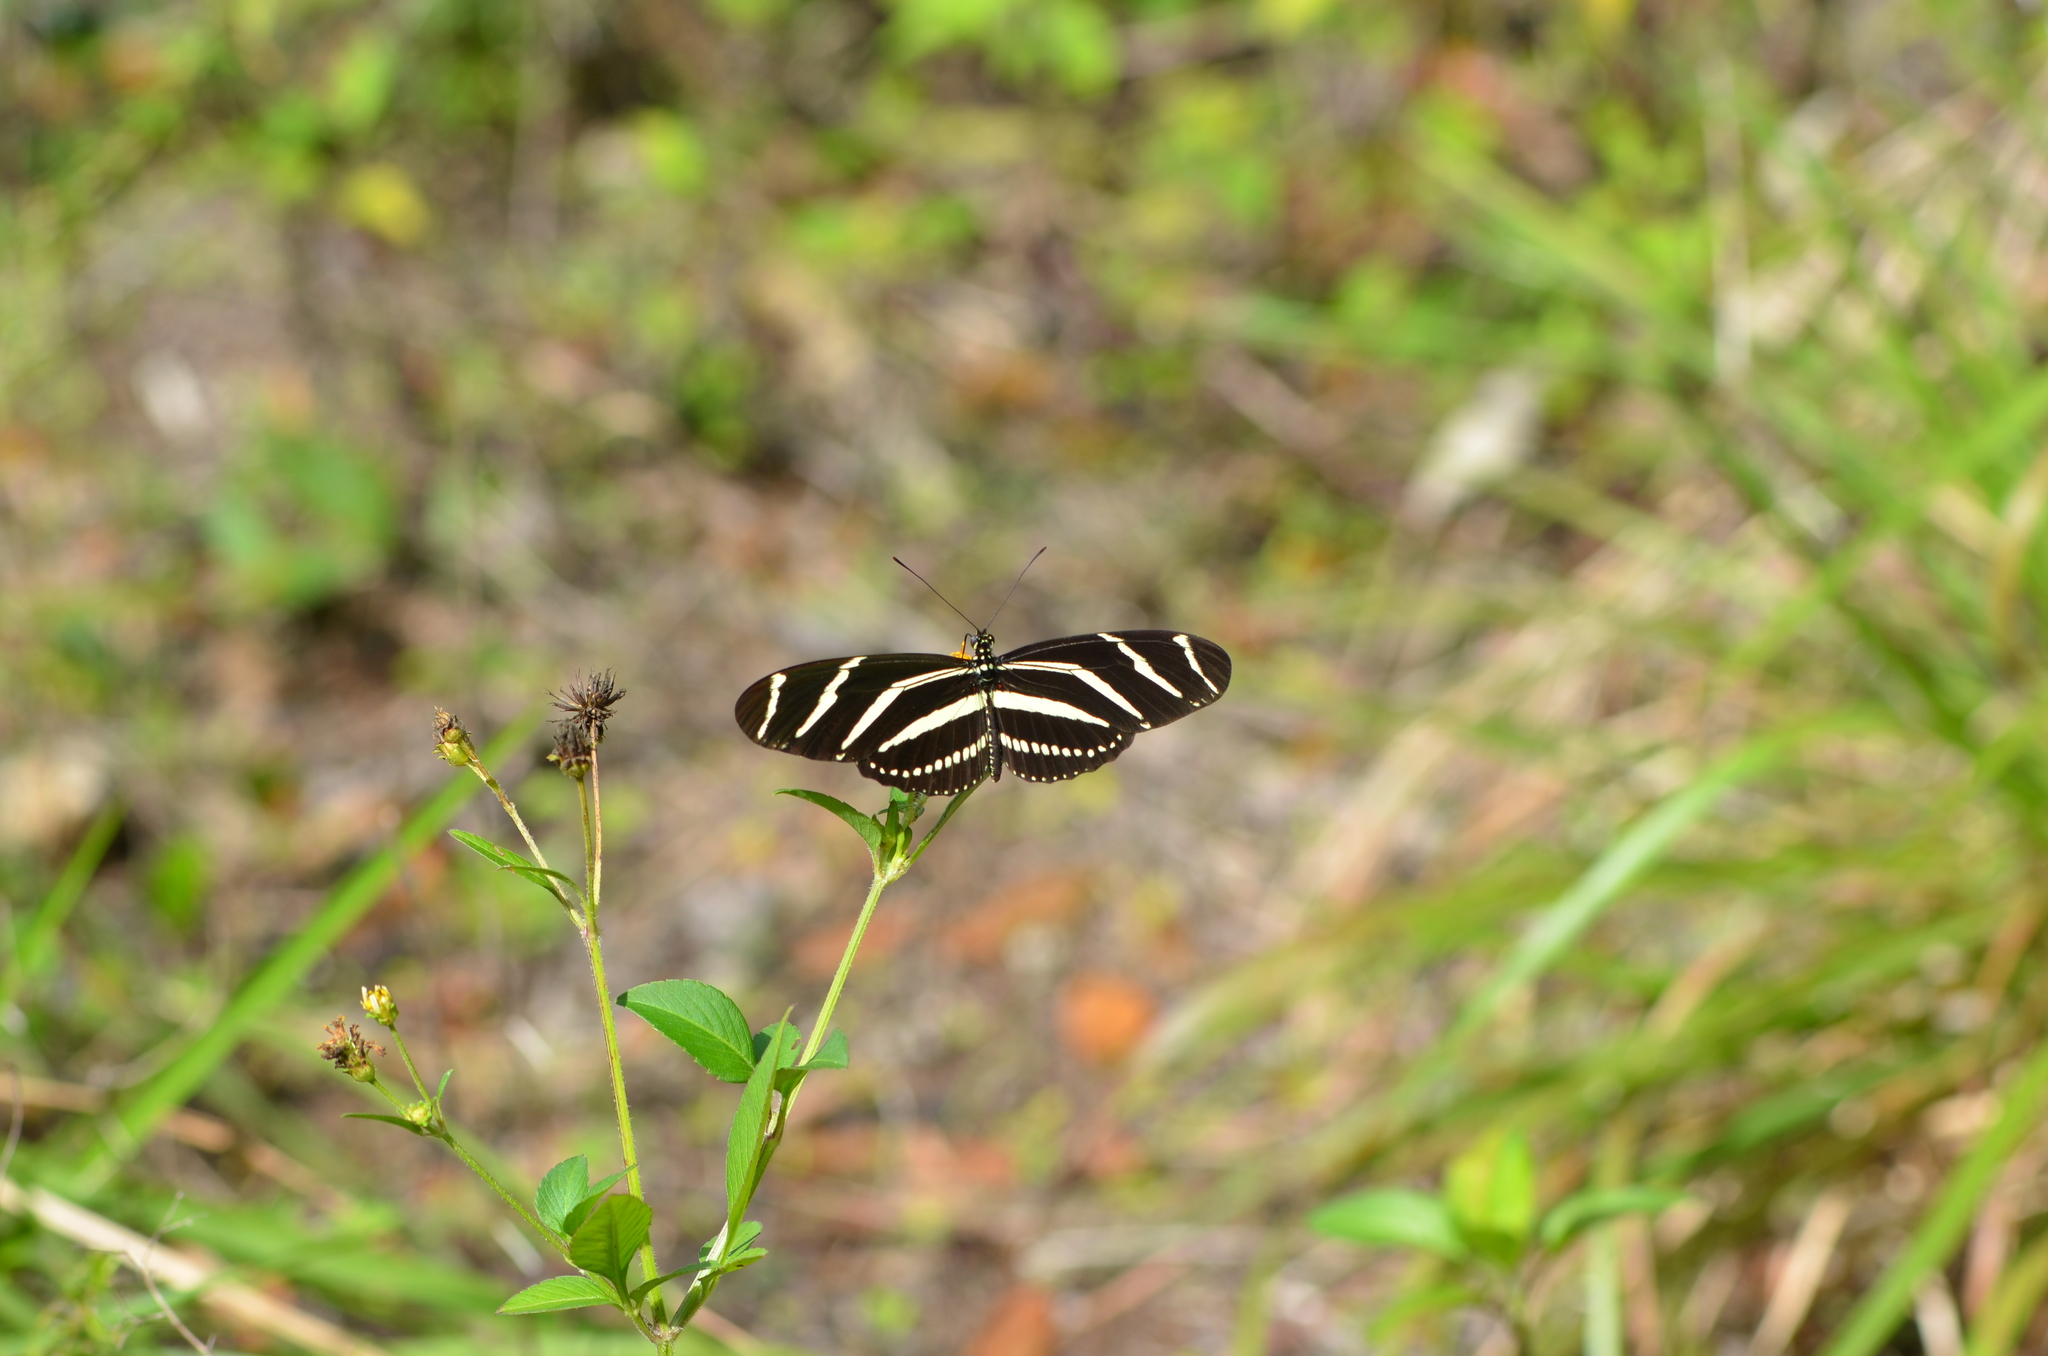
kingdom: Animalia
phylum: Arthropoda
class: Insecta
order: Lepidoptera
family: Nymphalidae
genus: Heliconius
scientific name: Heliconius charithonia
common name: Zebra long wing
